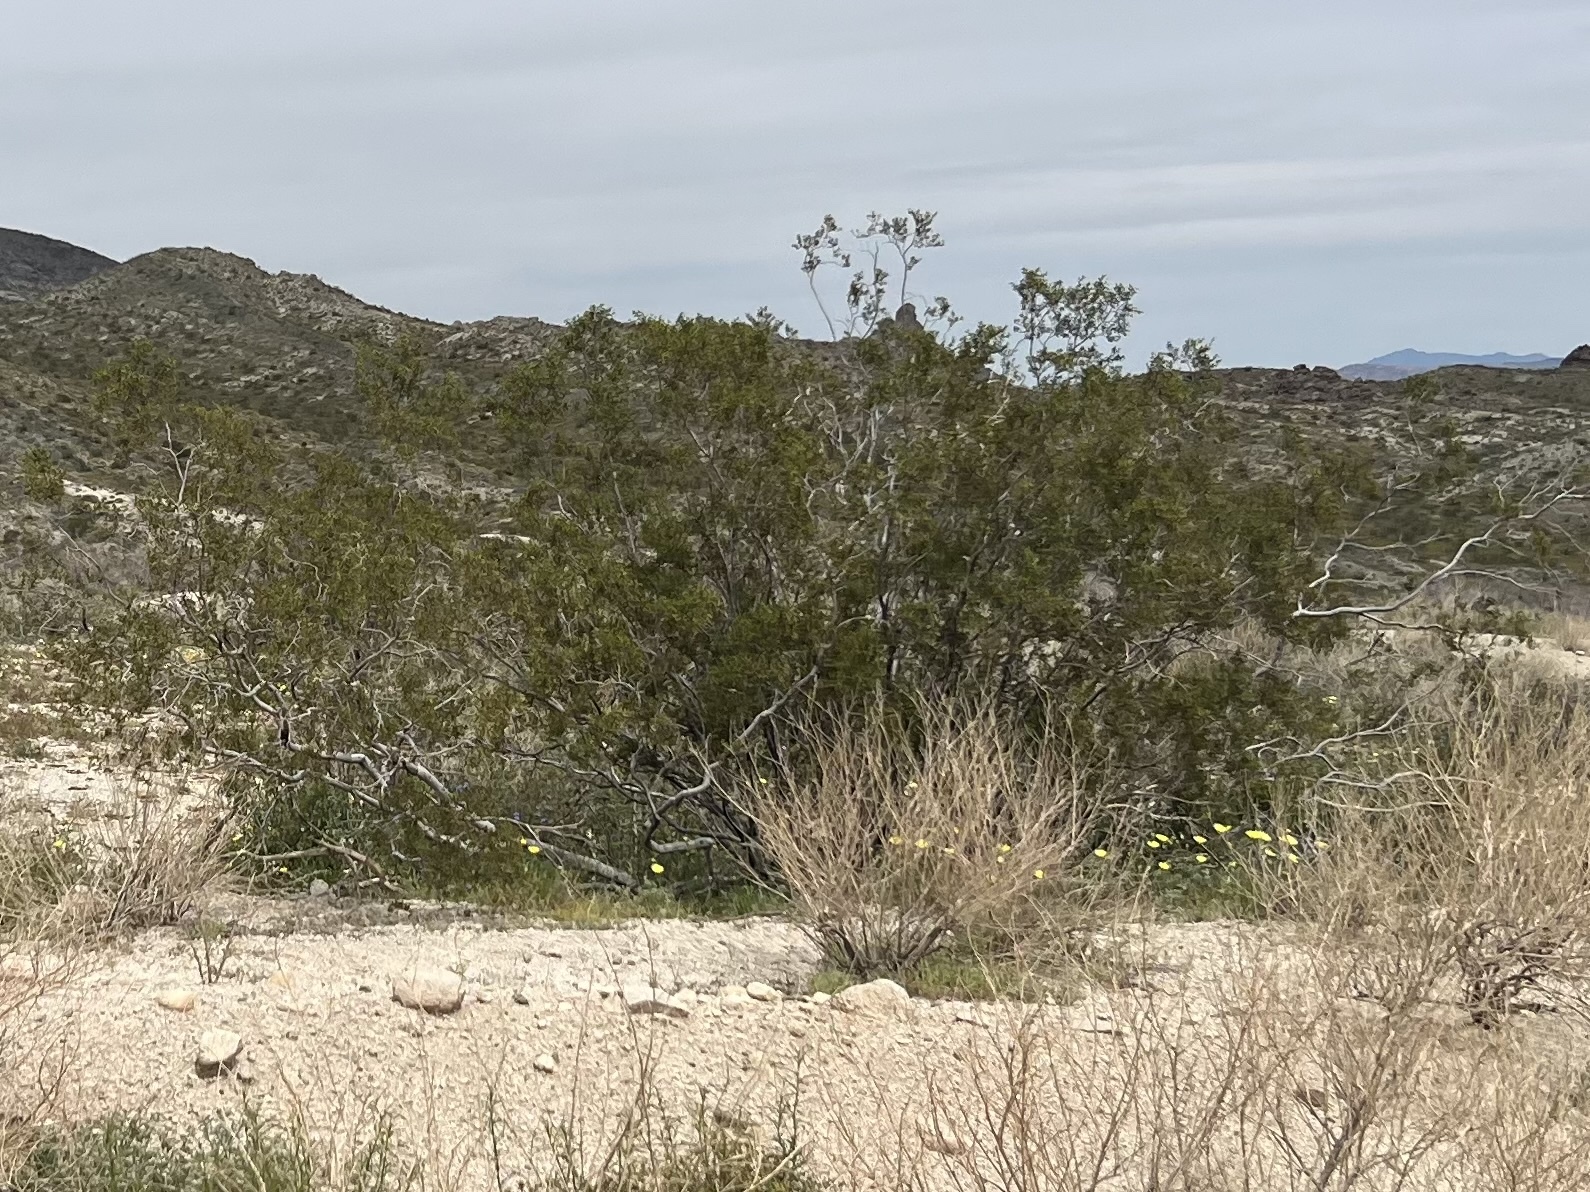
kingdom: Plantae
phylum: Tracheophyta
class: Magnoliopsida
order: Zygophyllales
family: Zygophyllaceae
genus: Larrea
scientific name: Larrea tridentata
